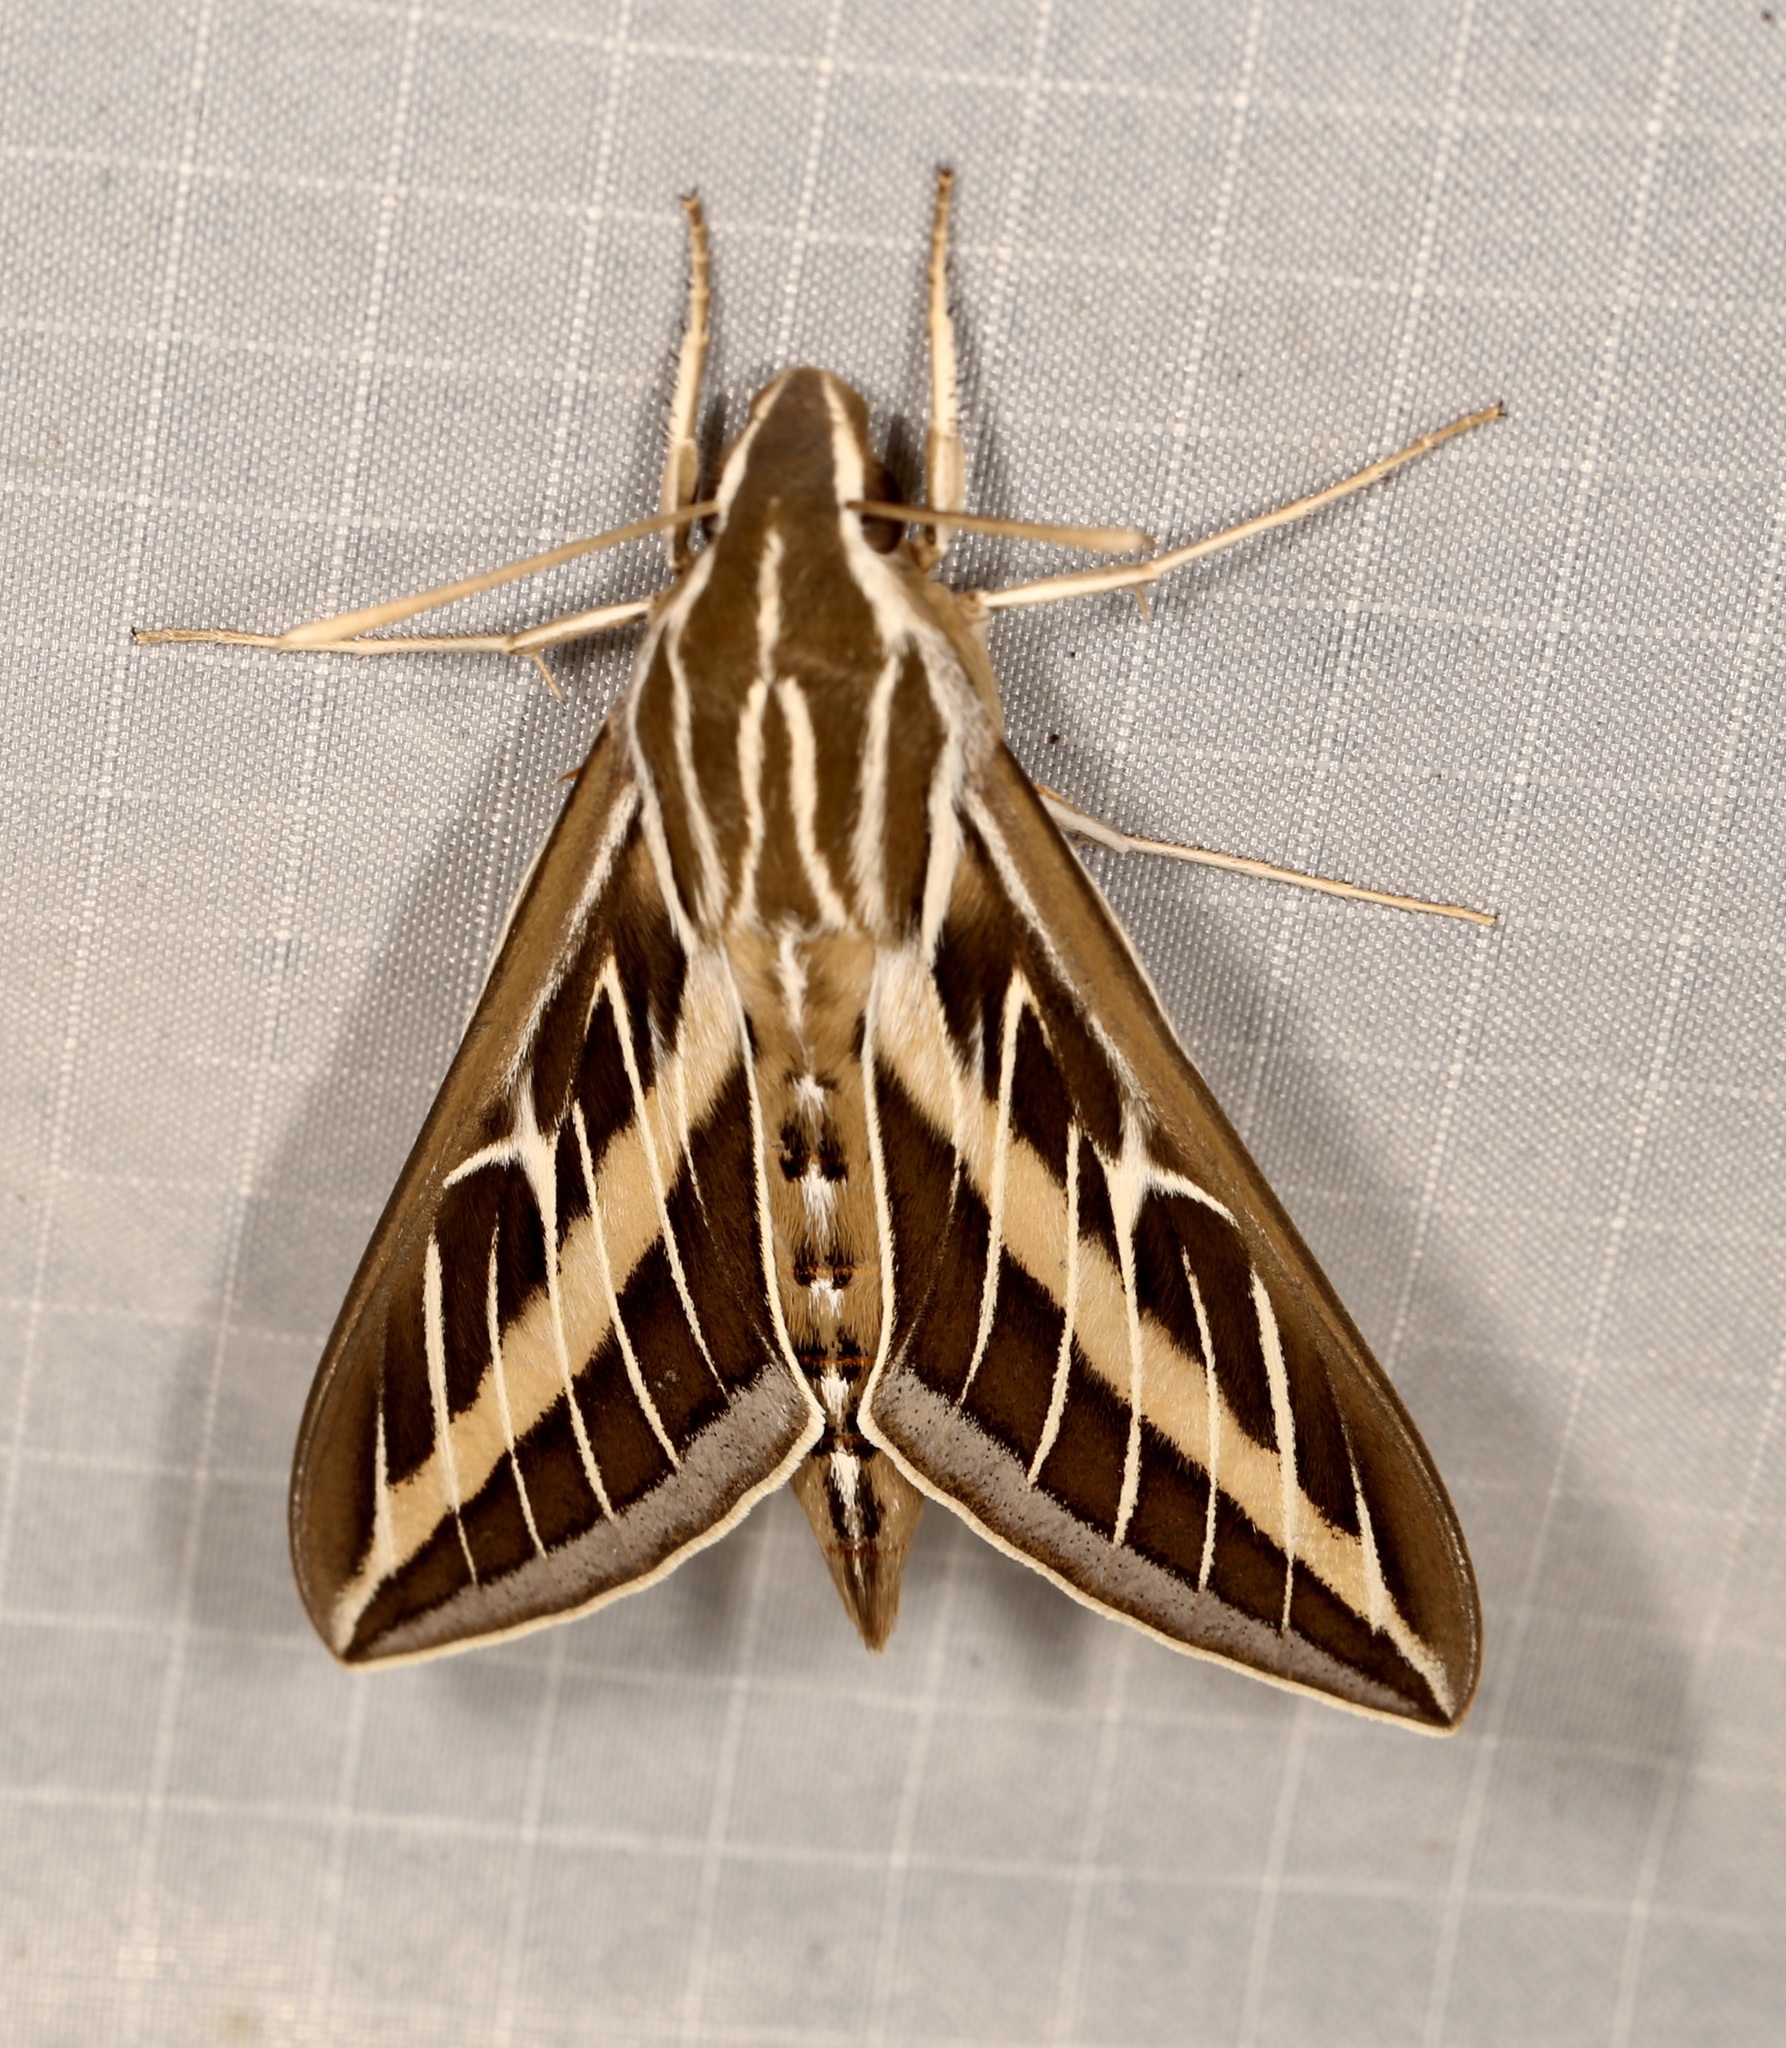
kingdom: Animalia
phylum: Arthropoda
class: Insecta
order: Lepidoptera
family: Sphingidae
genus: Hyles
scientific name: Hyles lineata
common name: White-lined sphinx
